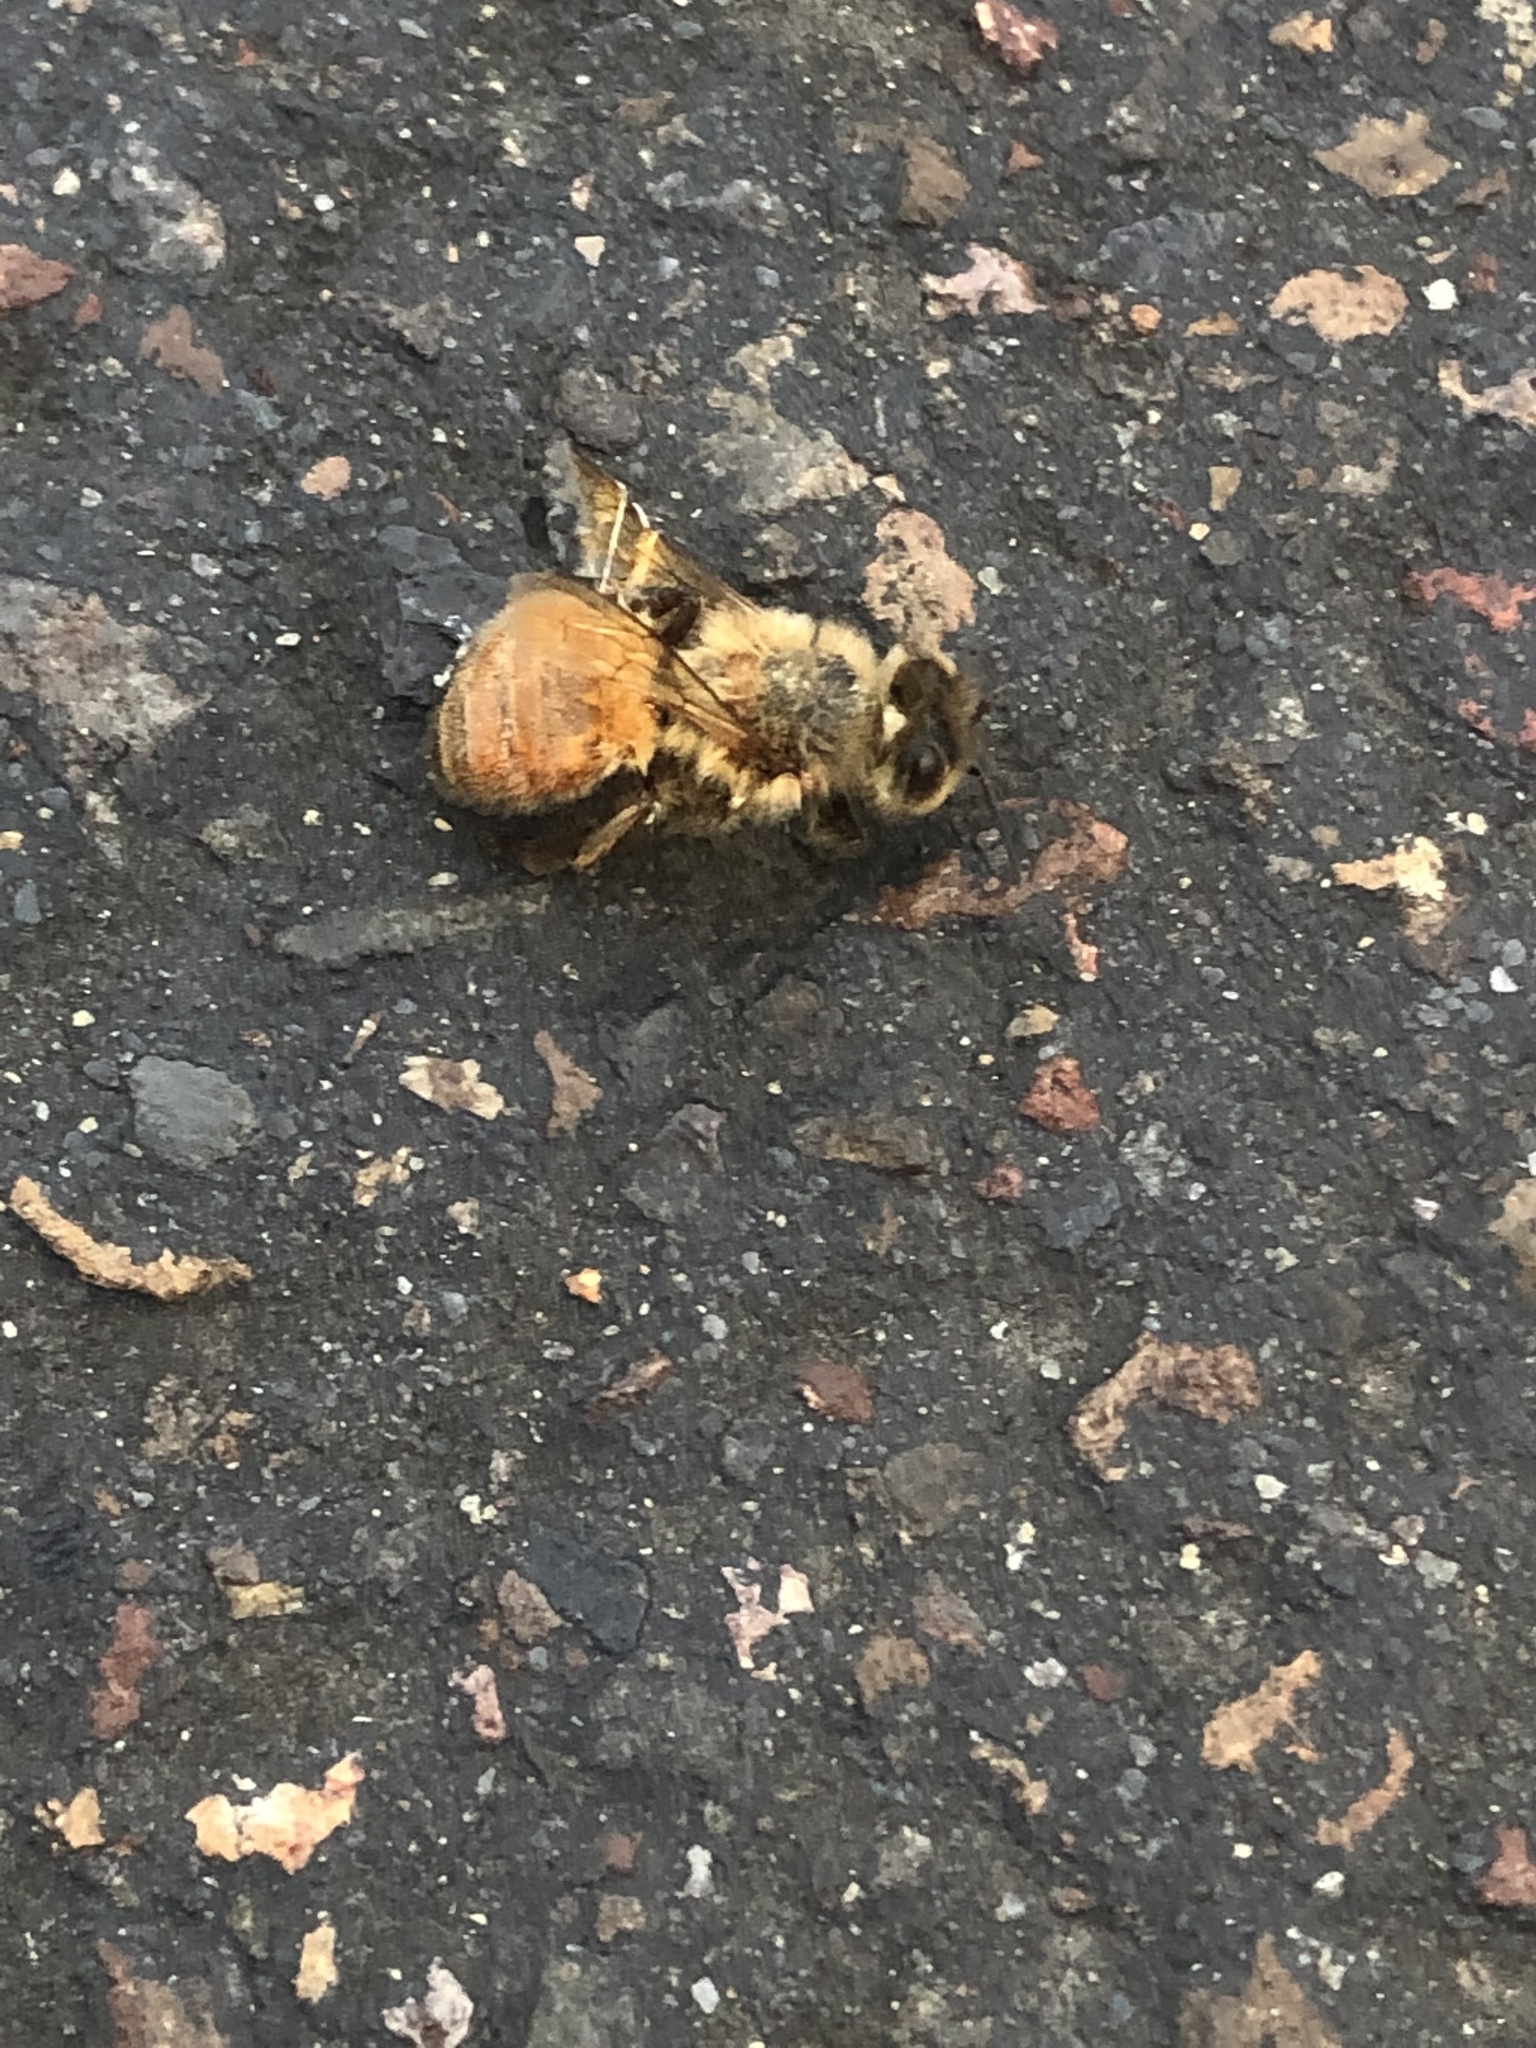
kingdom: Animalia
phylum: Arthropoda
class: Insecta
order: Hymenoptera
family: Apidae
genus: Apis
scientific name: Apis mellifera
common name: Honey bee
